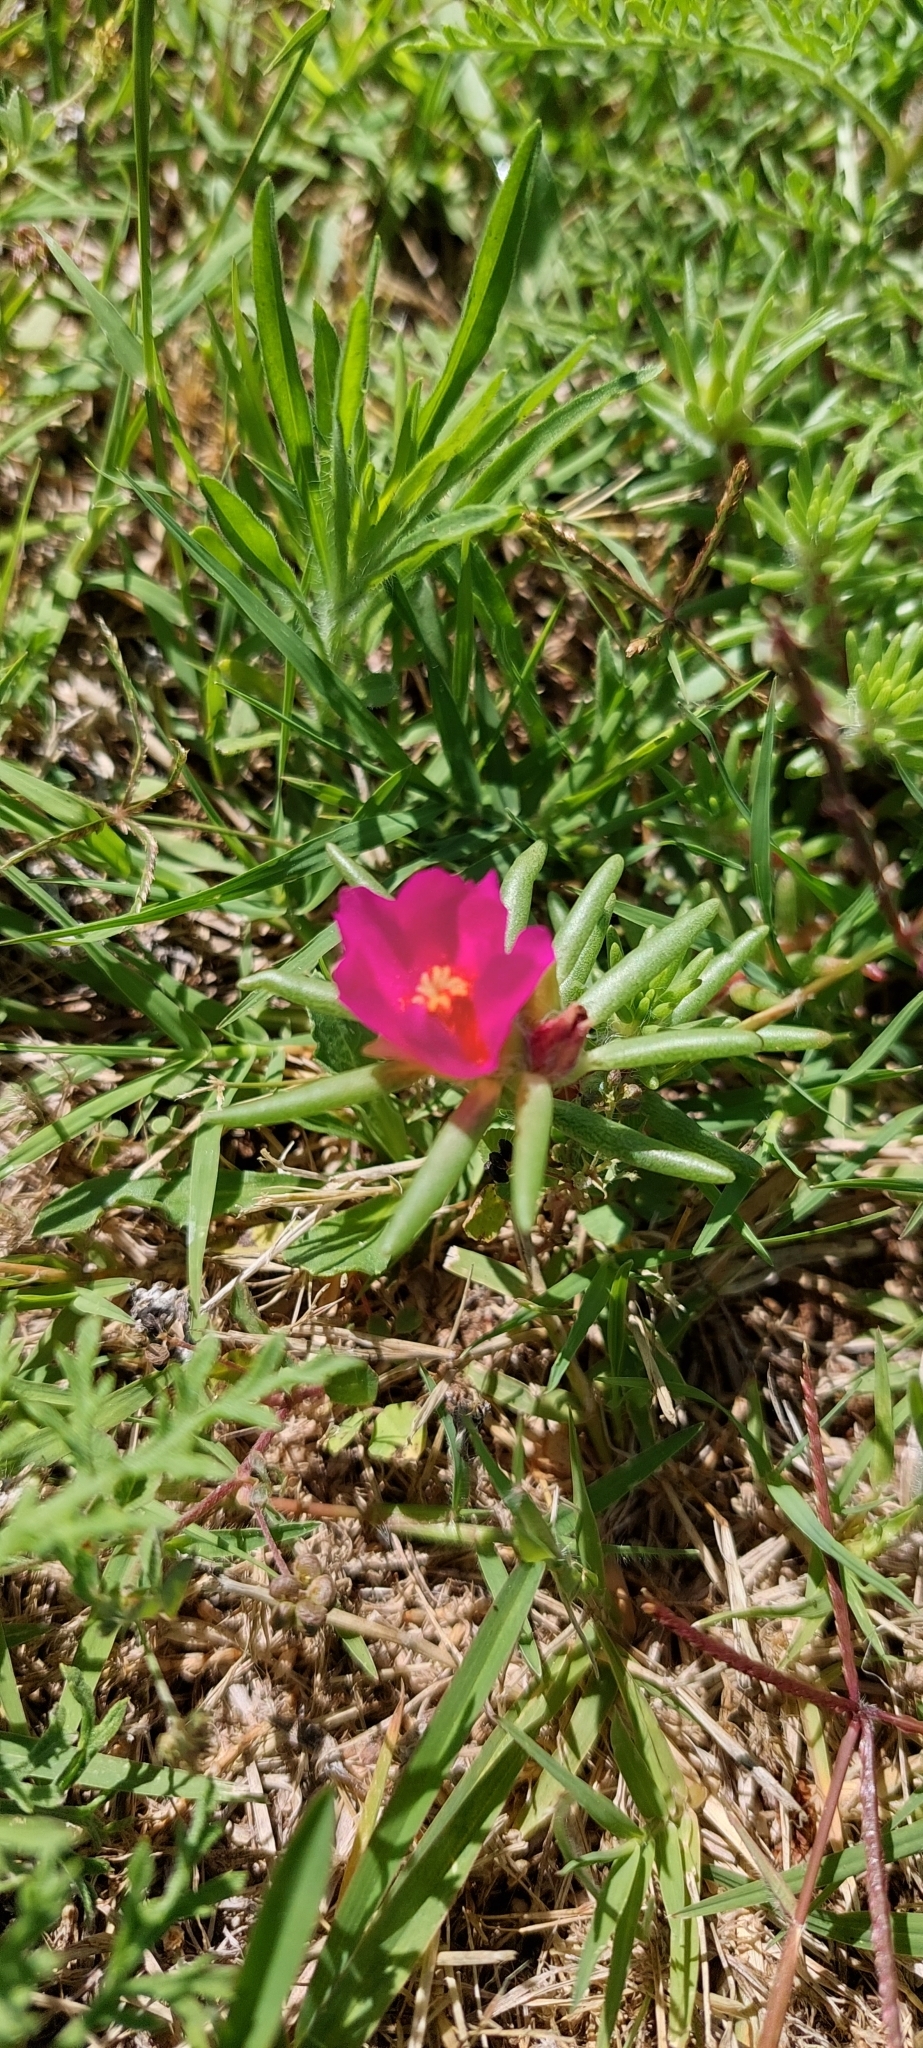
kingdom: Plantae
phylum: Tracheophyta
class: Magnoliopsida
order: Caryophyllales
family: Portulacaceae
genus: Portulaca
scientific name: Portulaca grandiflora
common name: Moss-rose
